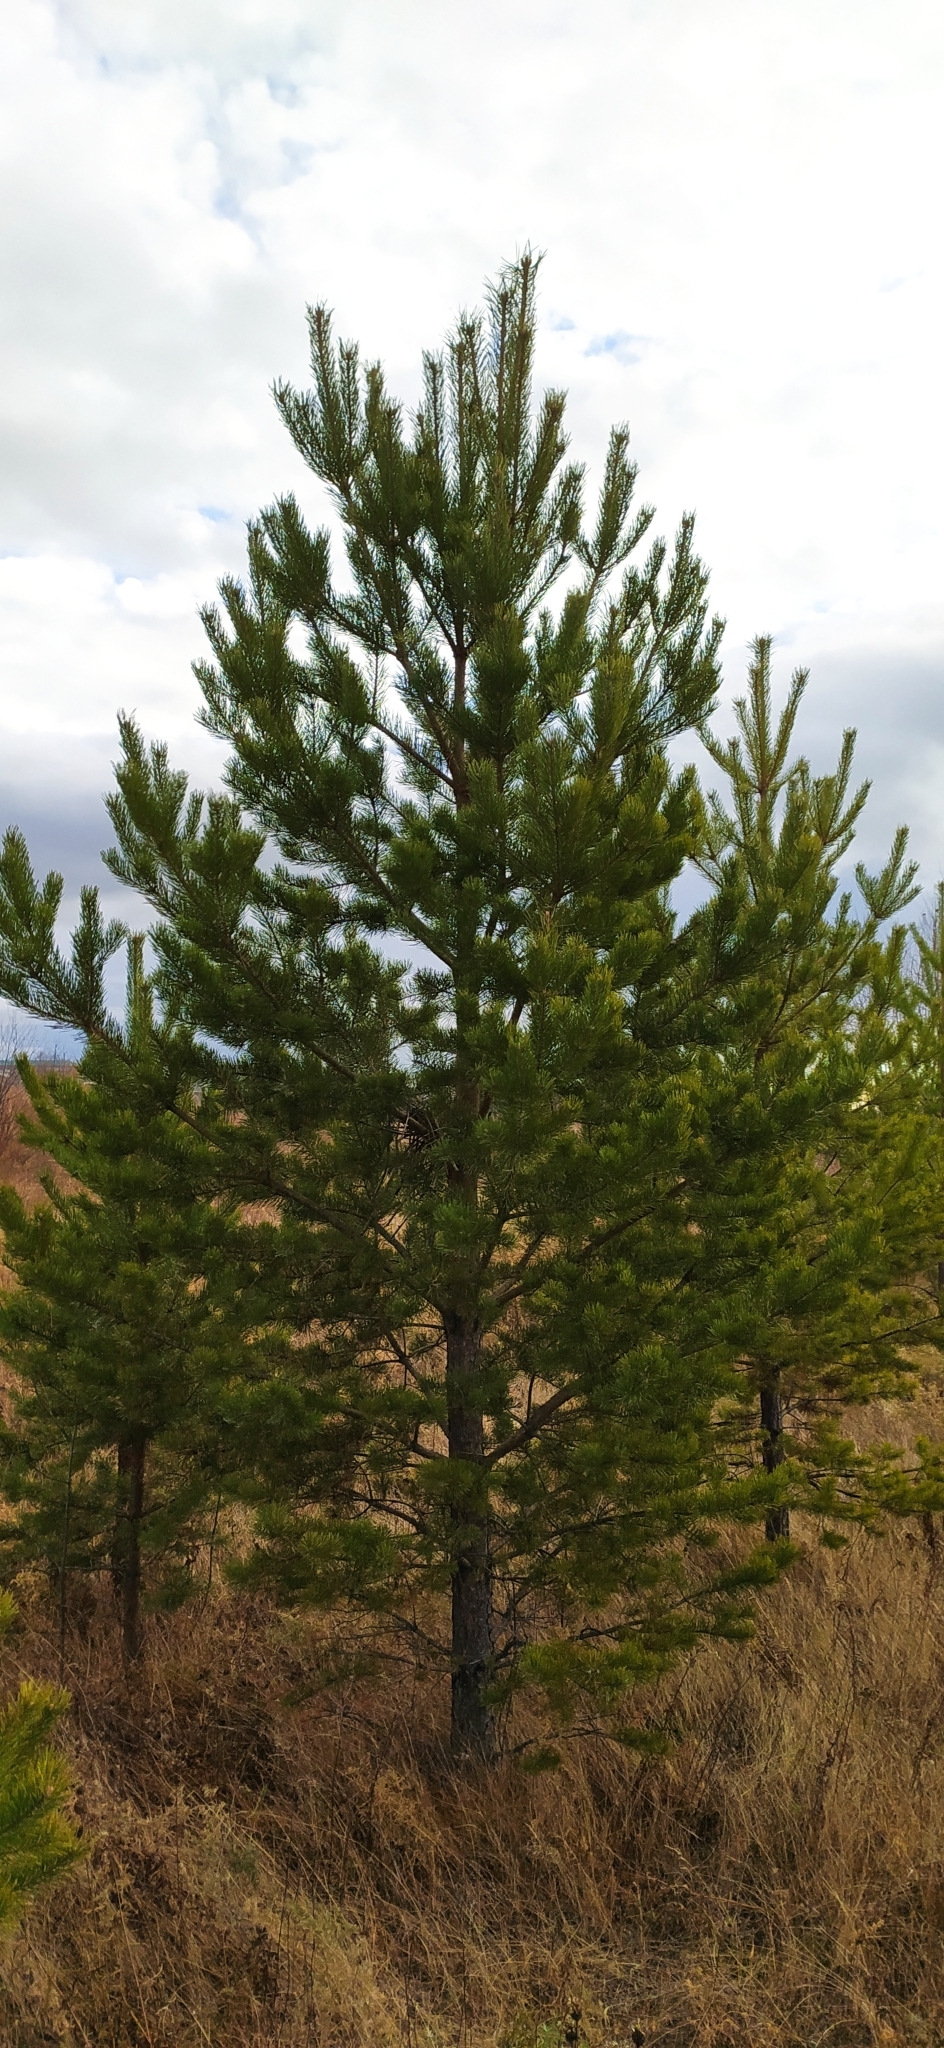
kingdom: Plantae
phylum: Tracheophyta
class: Pinopsida
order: Pinales
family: Pinaceae
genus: Pinus
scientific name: Pinus sylvestris
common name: Scots pine
